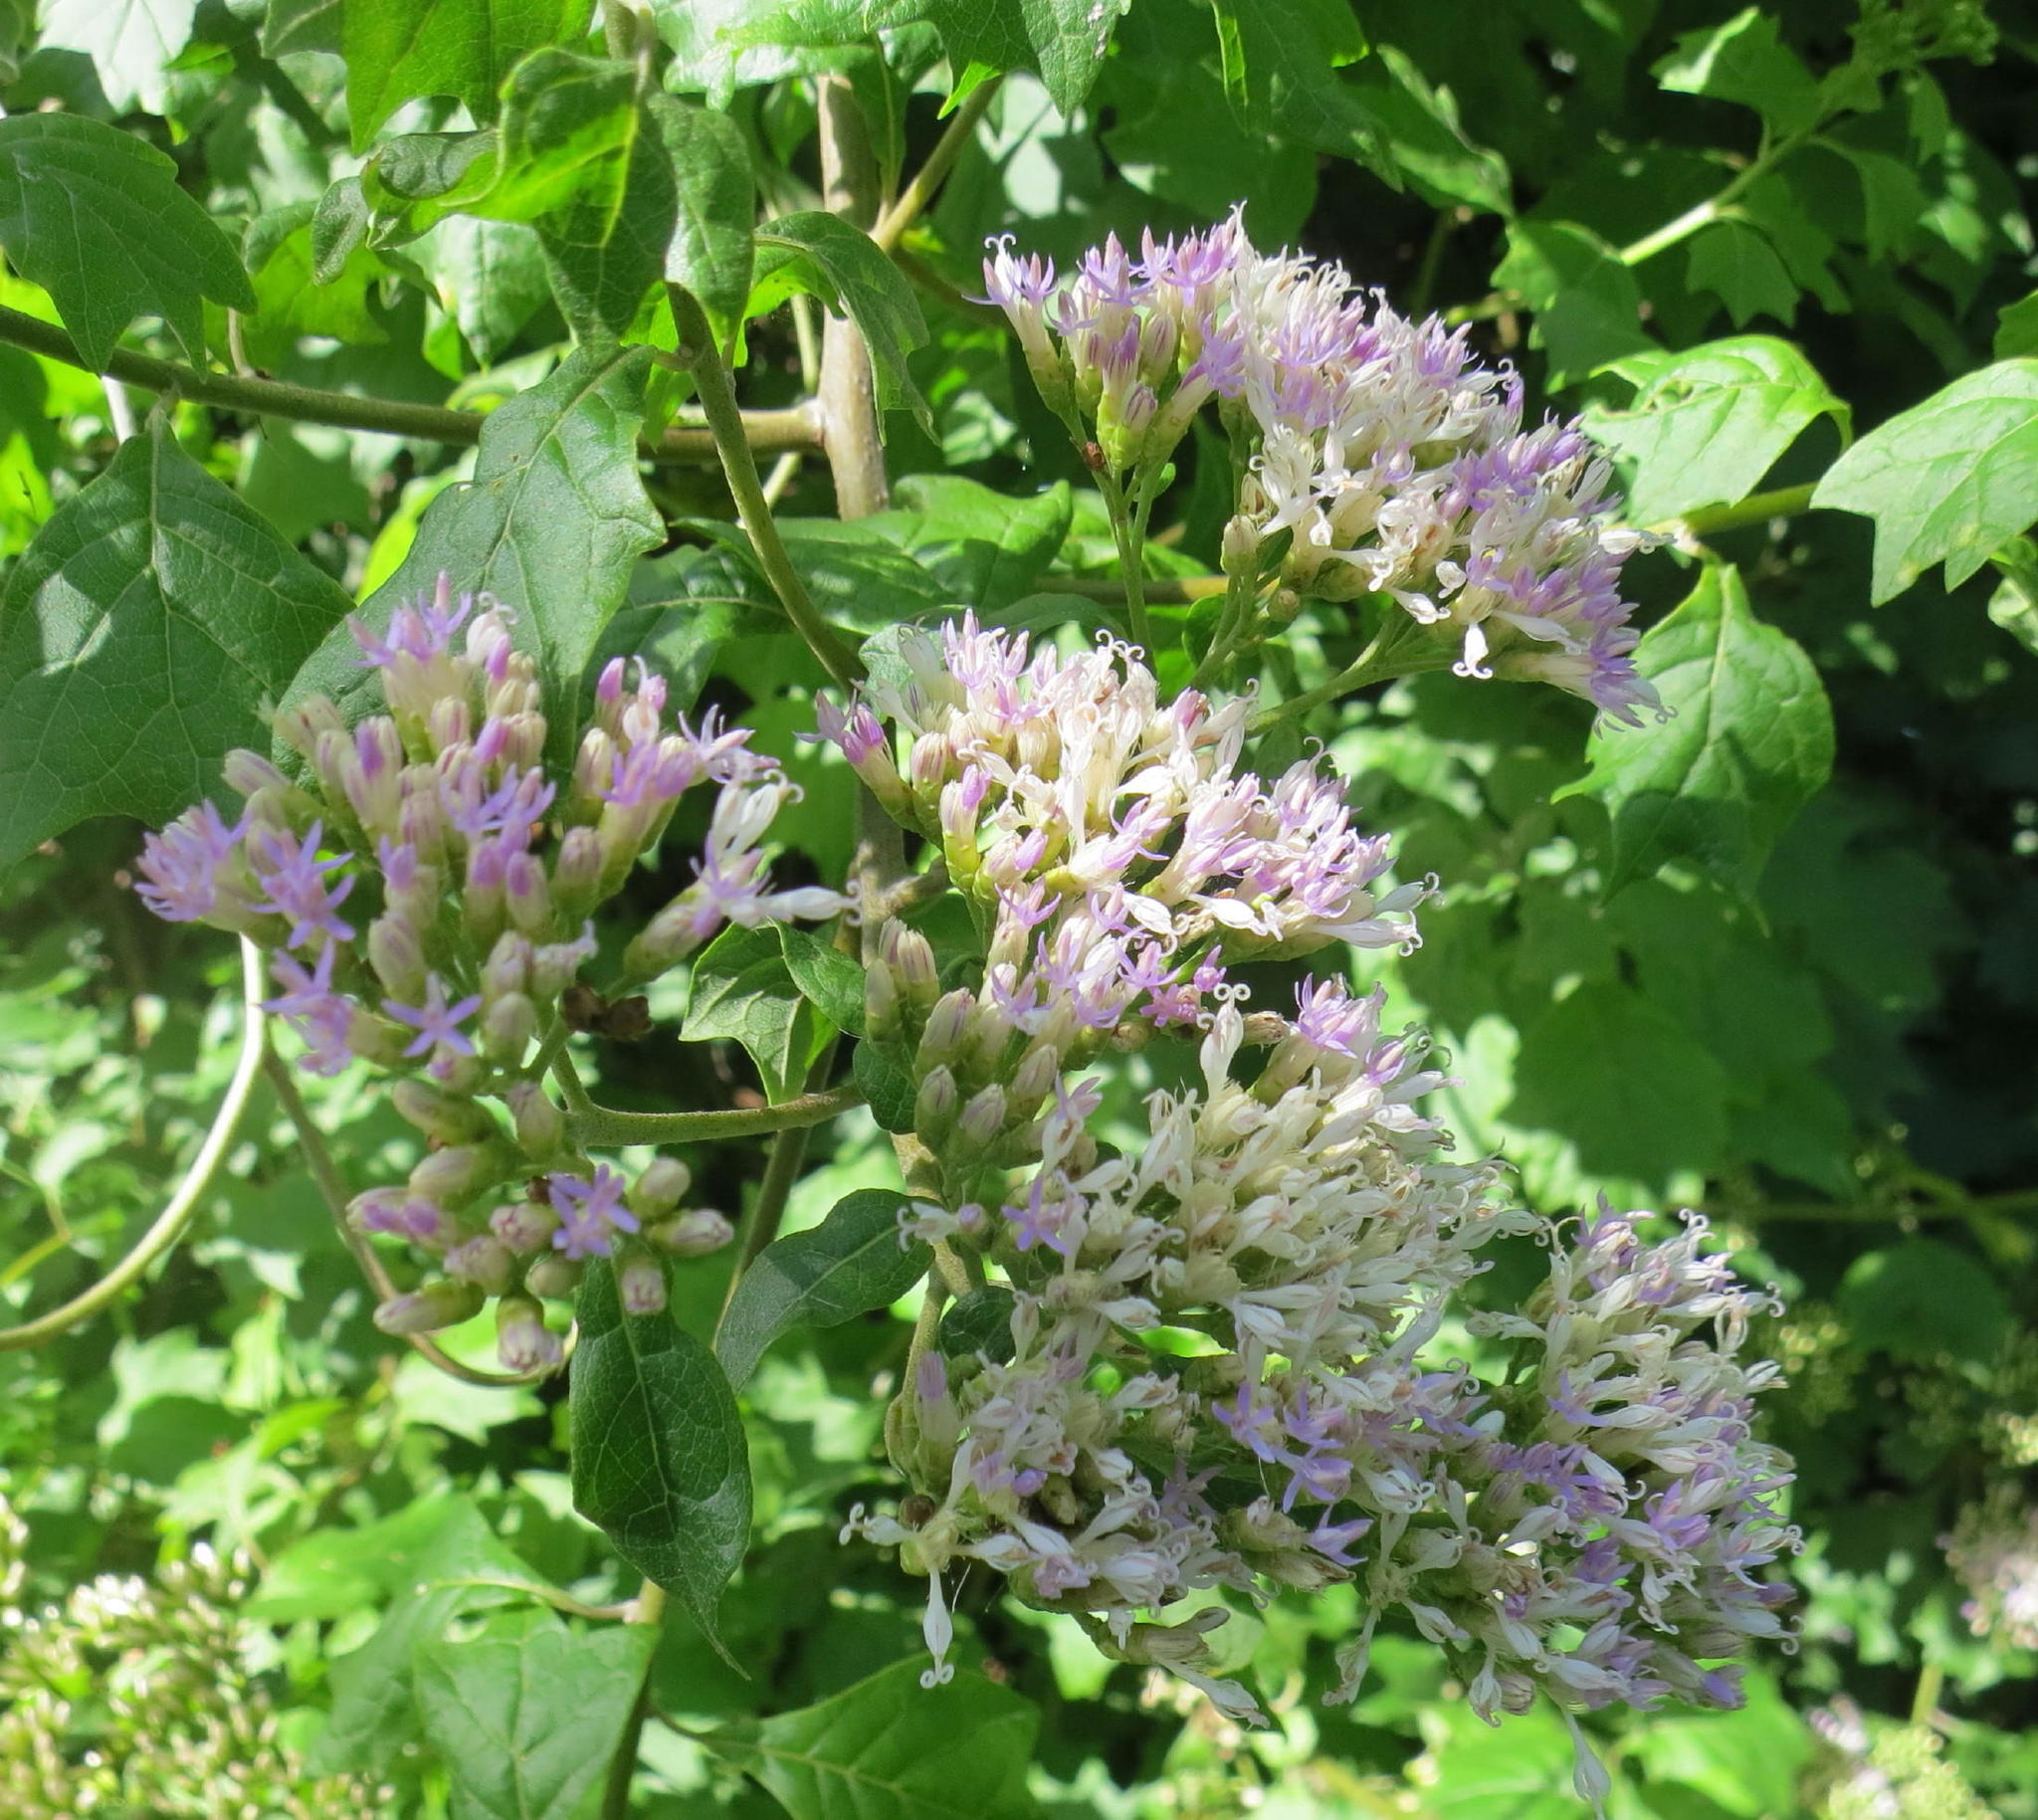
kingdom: Plantae
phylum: Tracheophyta
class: Magnoliopsida
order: Asterales
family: Asteraceae
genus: Gymnanthemum
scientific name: Gymnanthemum capense
